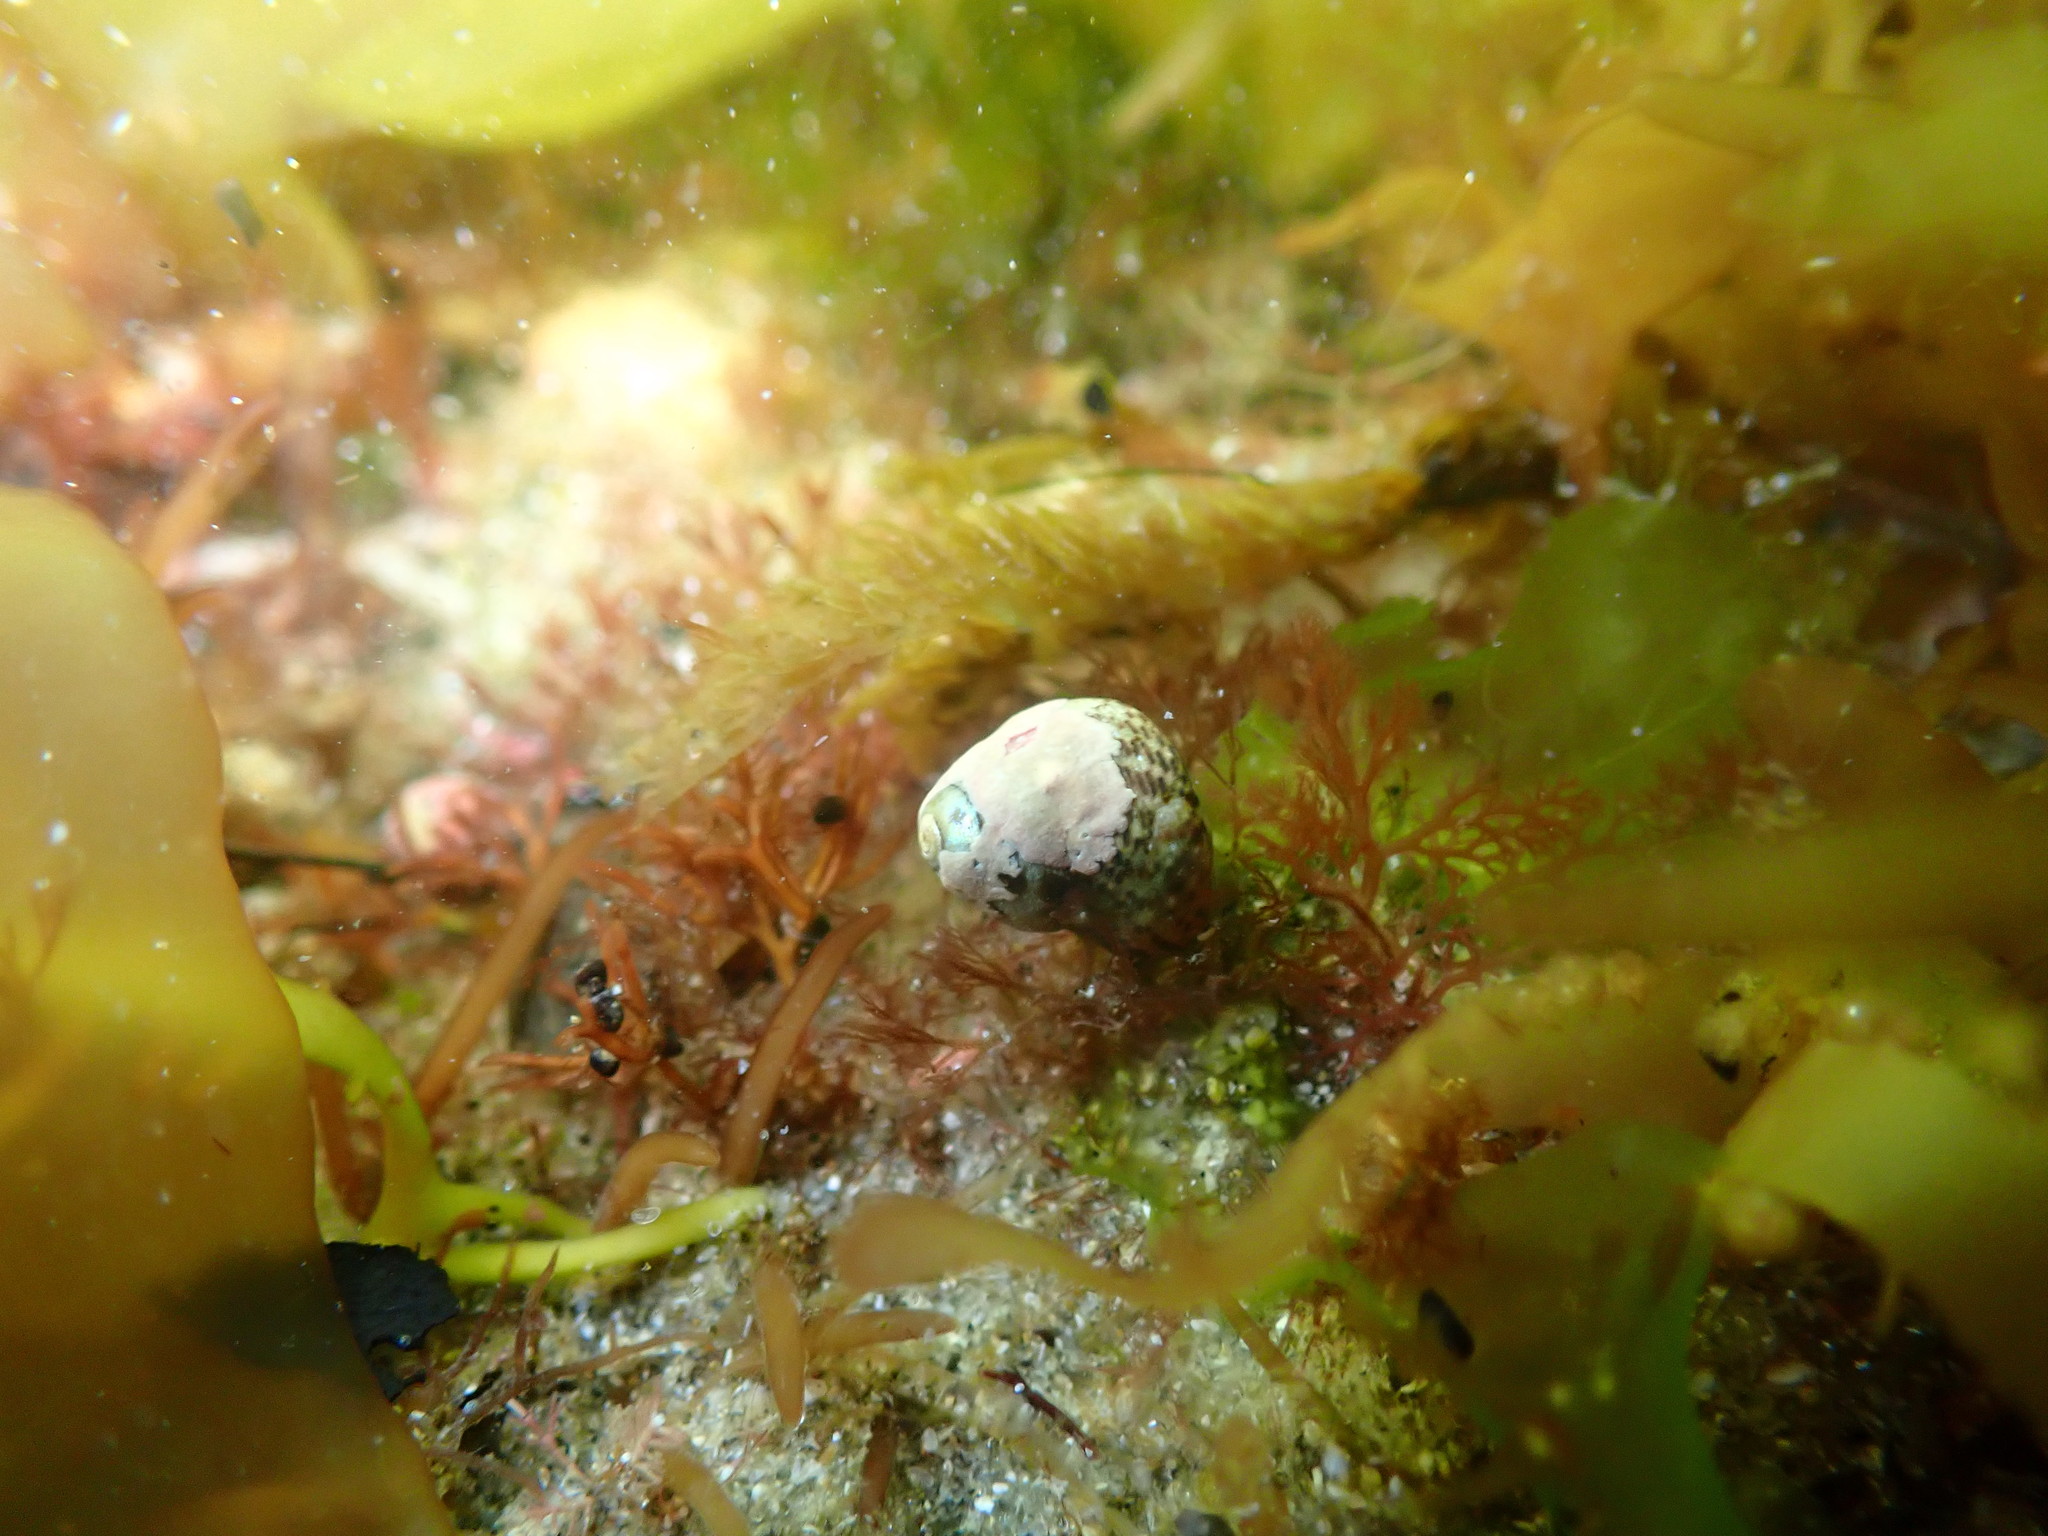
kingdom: Animalia
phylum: Mollusca
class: Gastropoda
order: Trochida
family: Trochidae
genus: Micrelenchus
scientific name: Micrelenchus tessellatus
